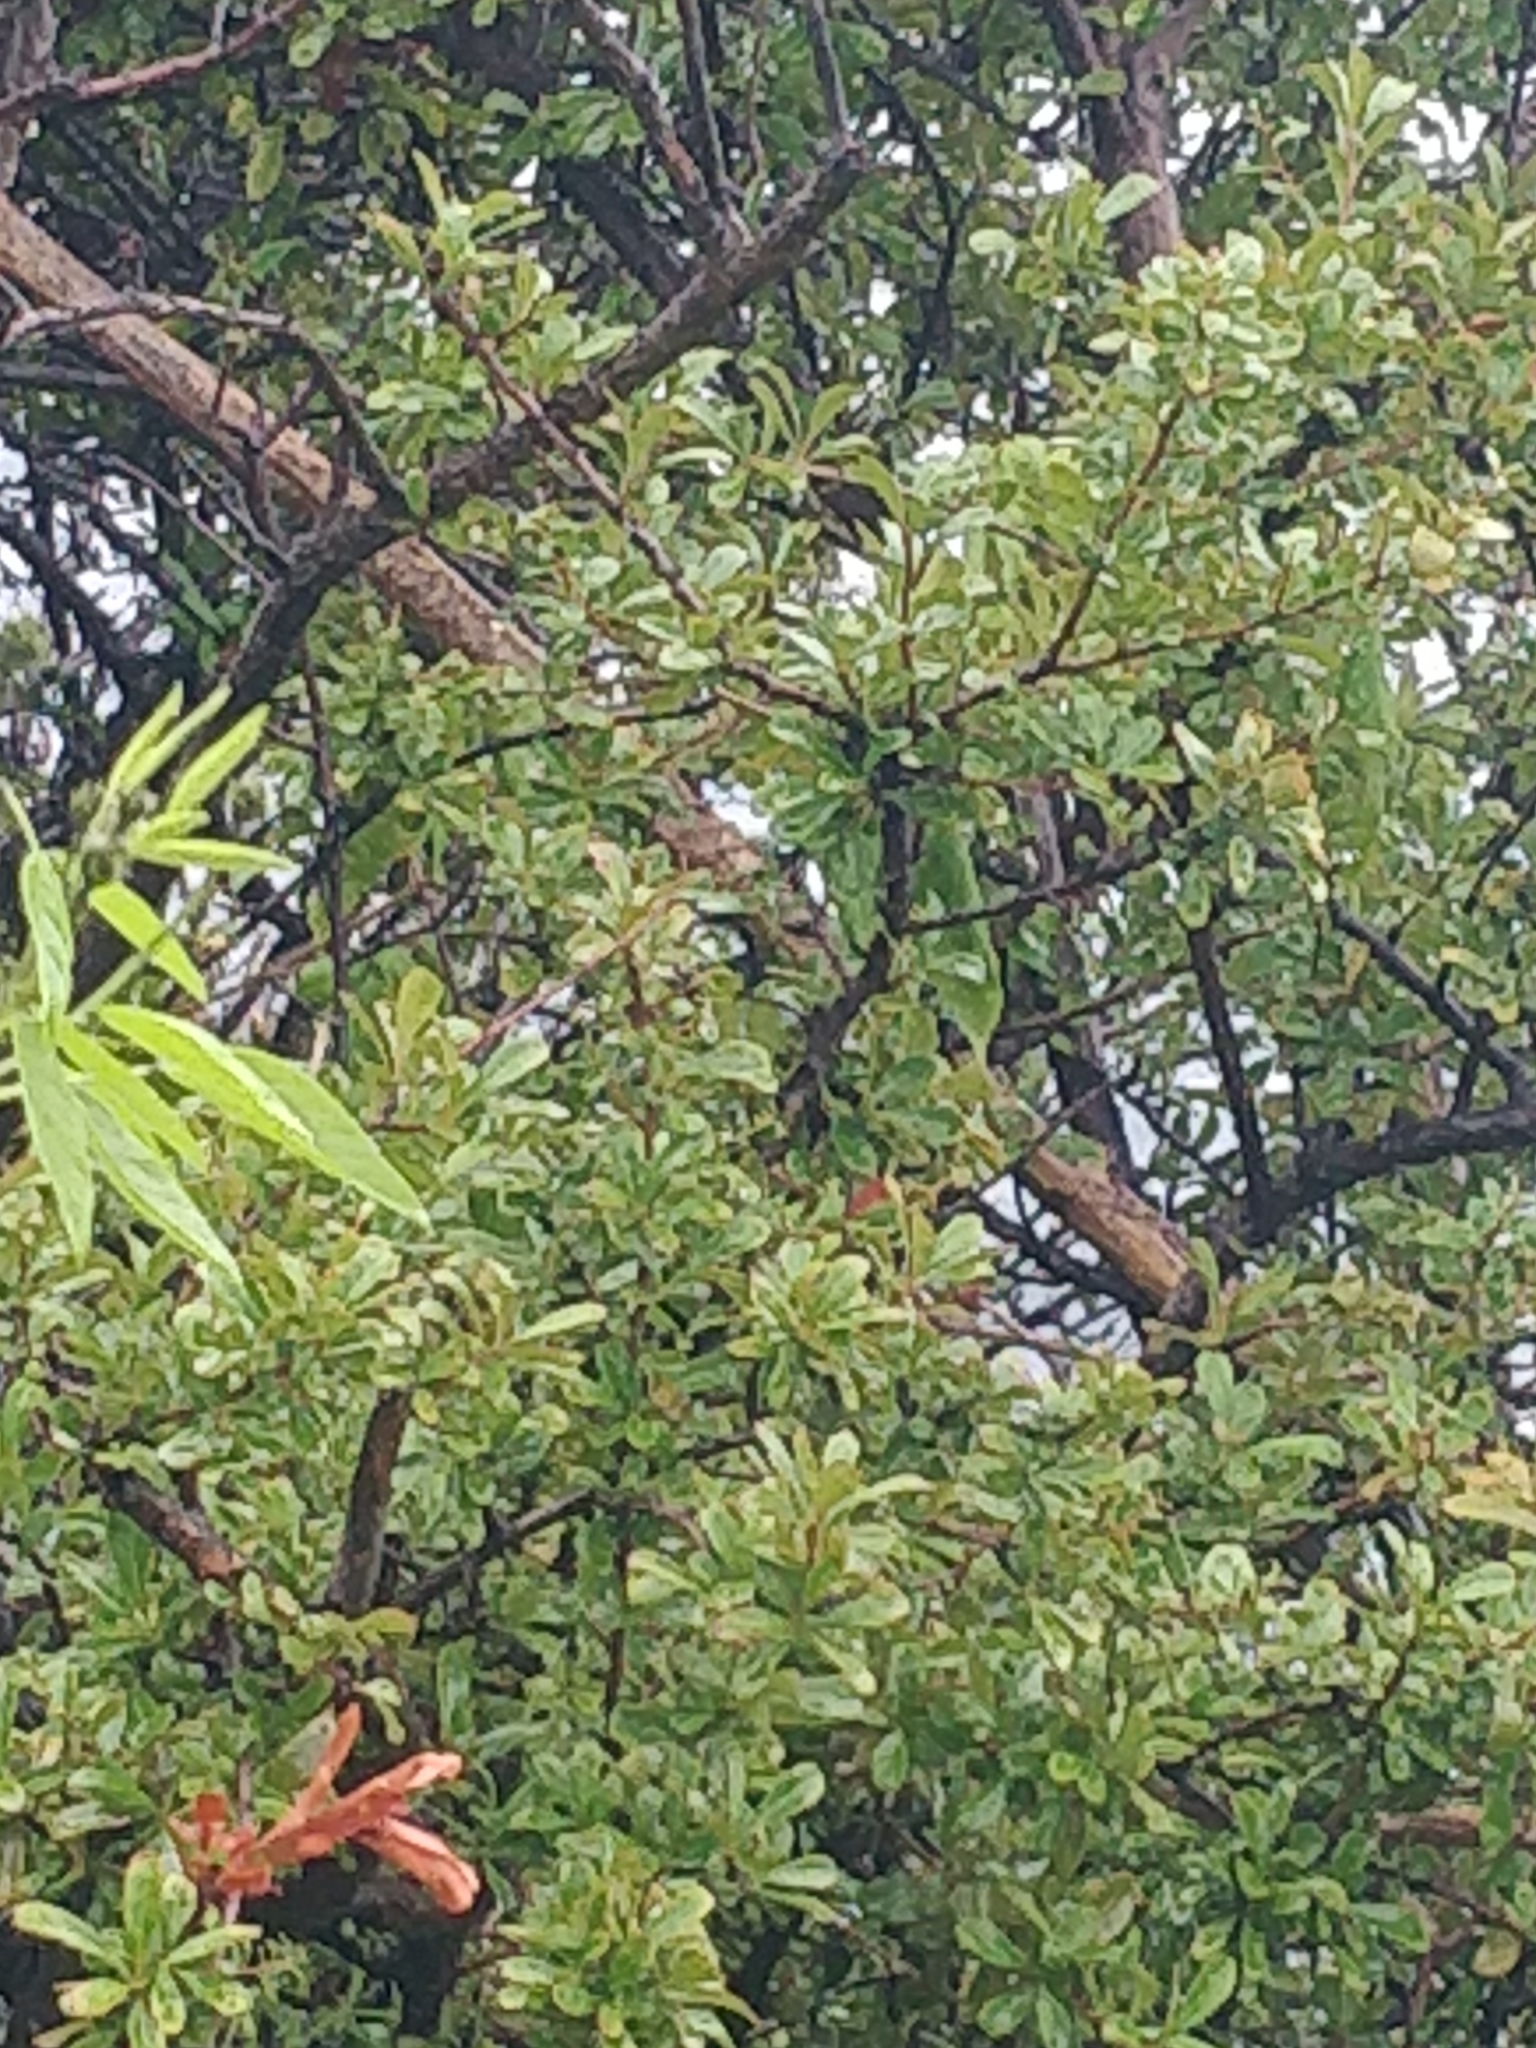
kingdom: Plantae
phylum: Tracheophyta
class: Magnoliopsida
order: Rosales
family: Rosaceae
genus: Chamaemeles
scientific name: Chamaemeles coriacea
